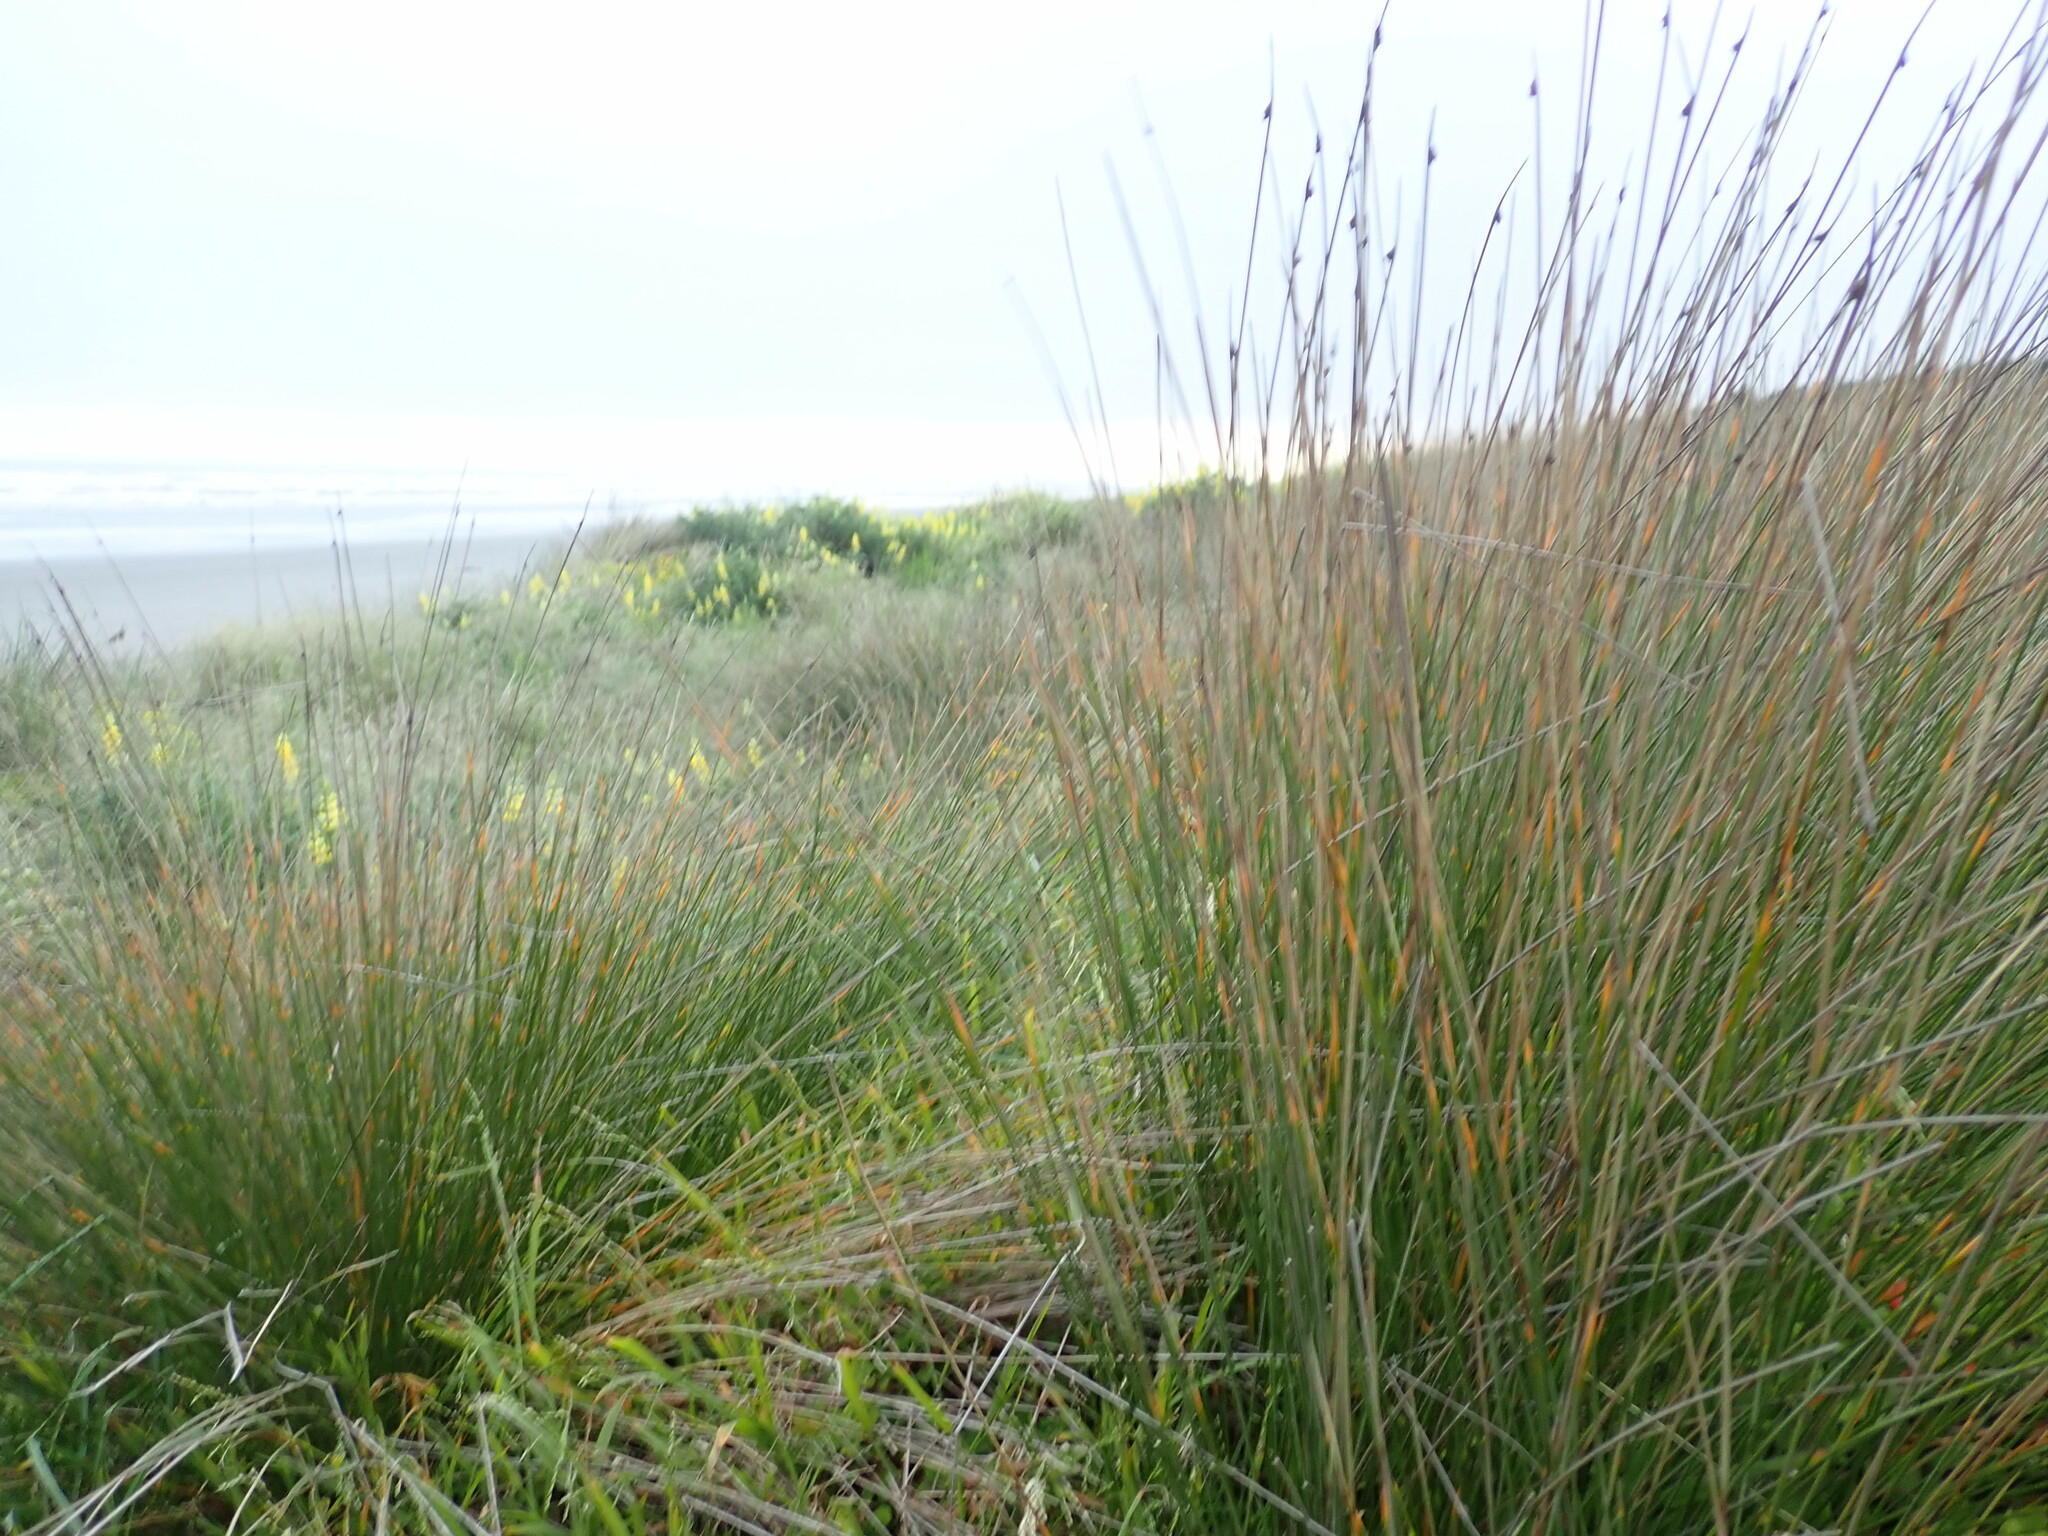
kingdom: Plantae
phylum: Tracheophyta
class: Liliopsida
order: Poales
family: Cyperaceae
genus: Ficinia
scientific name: Ficinia nodosa
